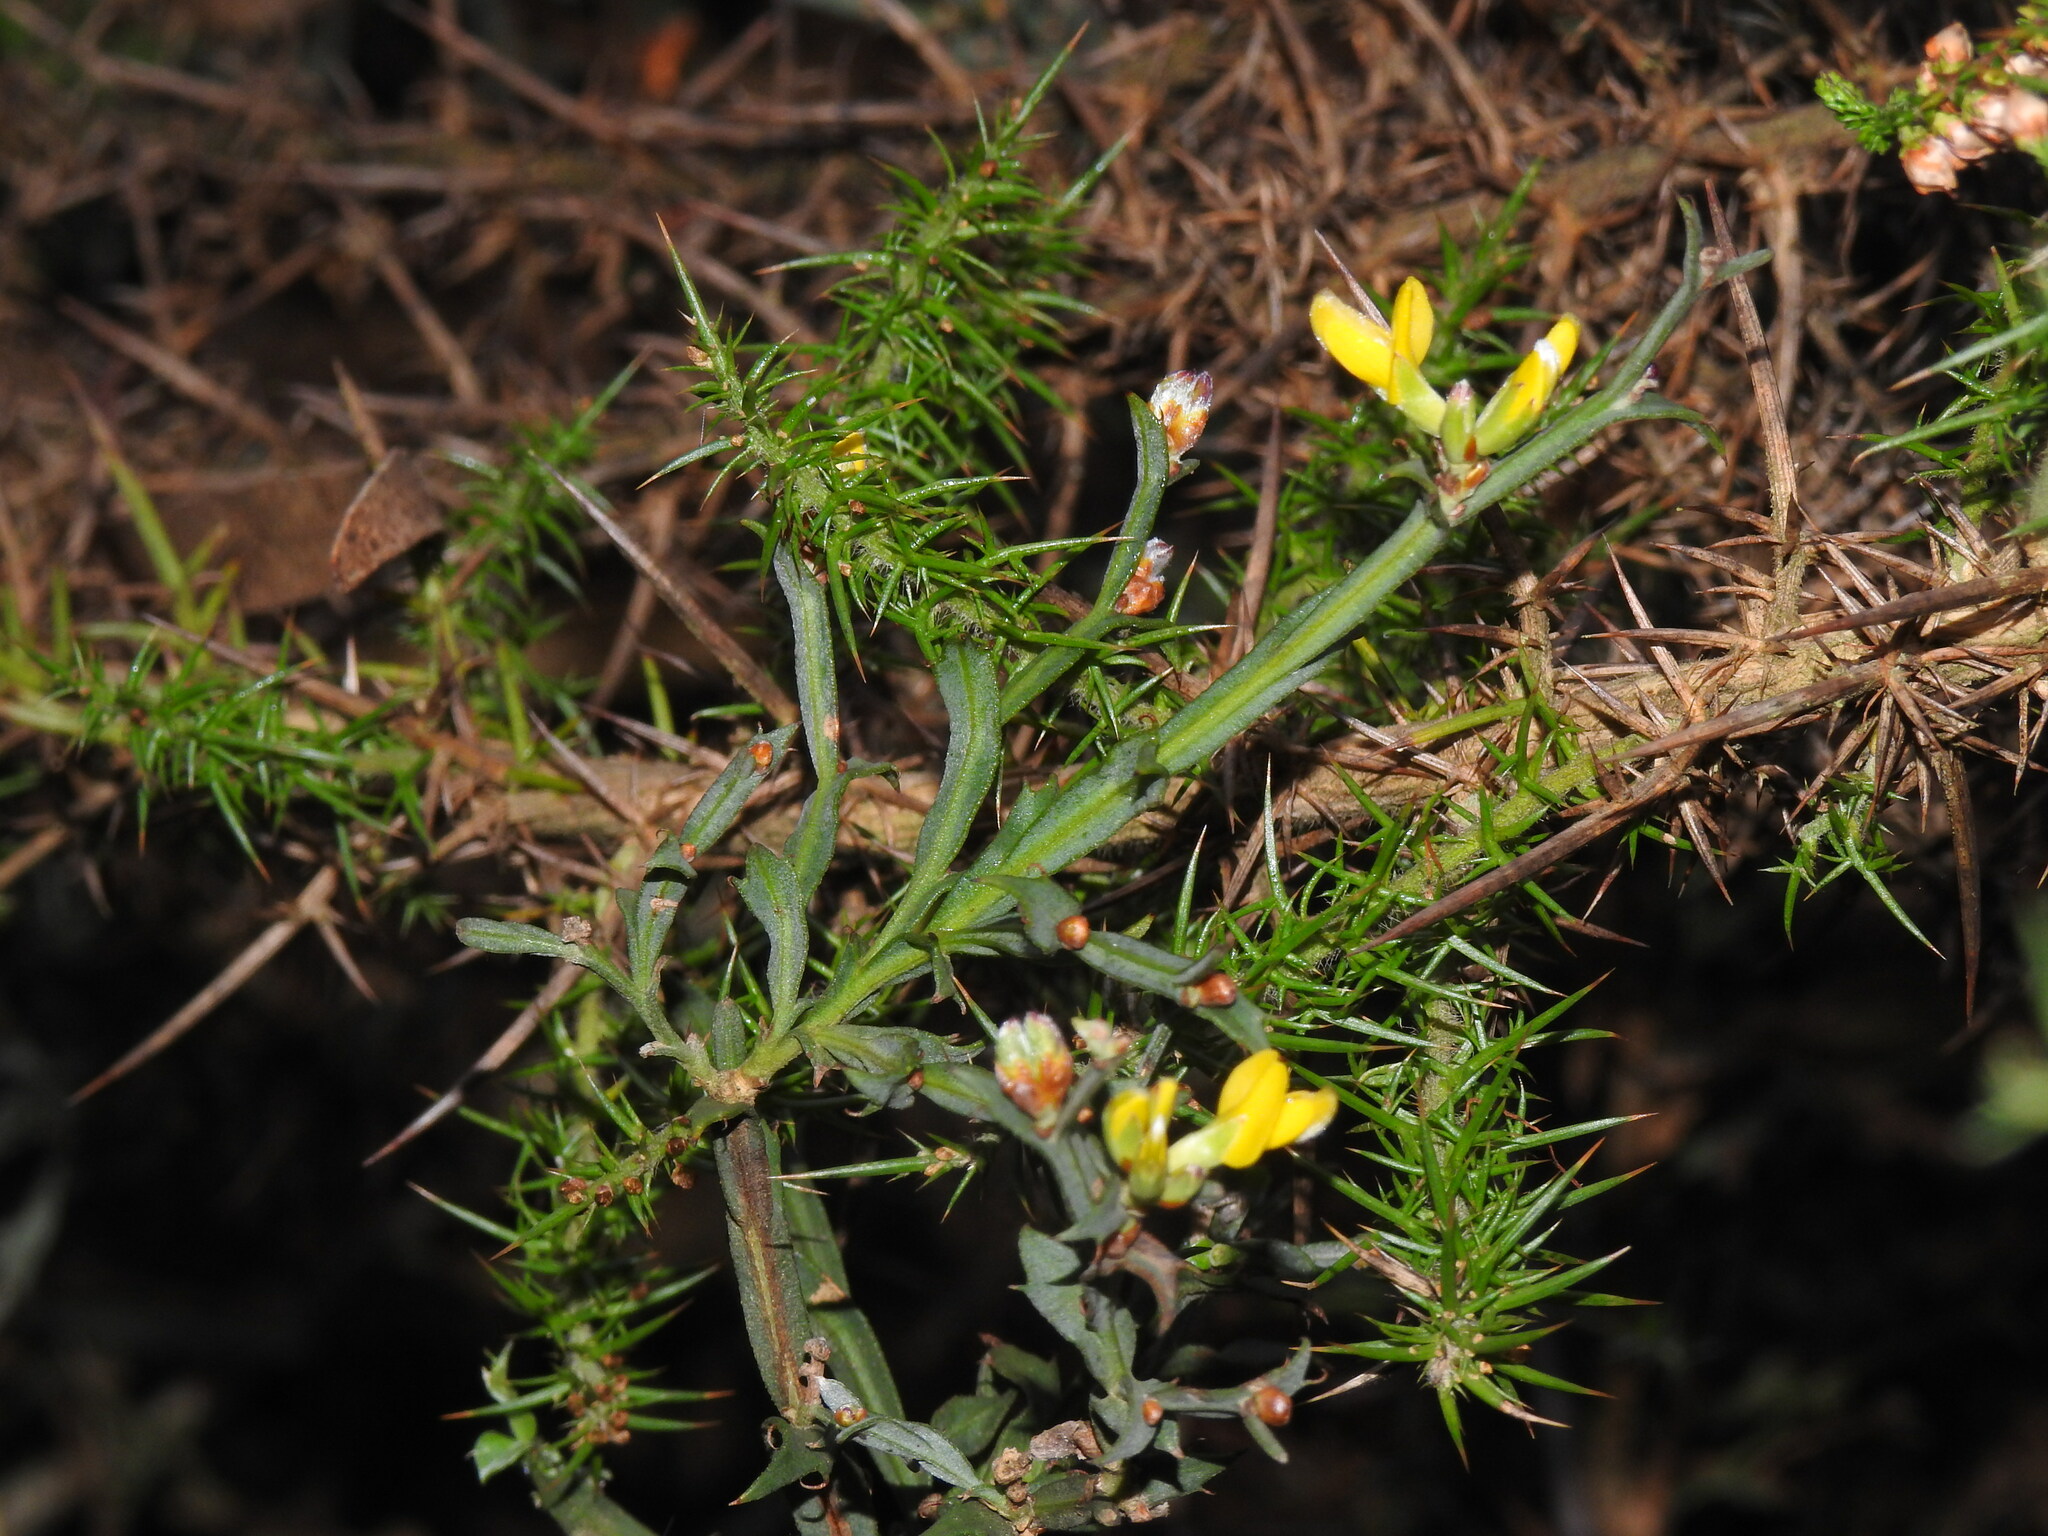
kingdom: Plantae
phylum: Tracheophyta
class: Magnoliopsida
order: Fabales
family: Fabaceae
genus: Genista
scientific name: Genista tridentata
